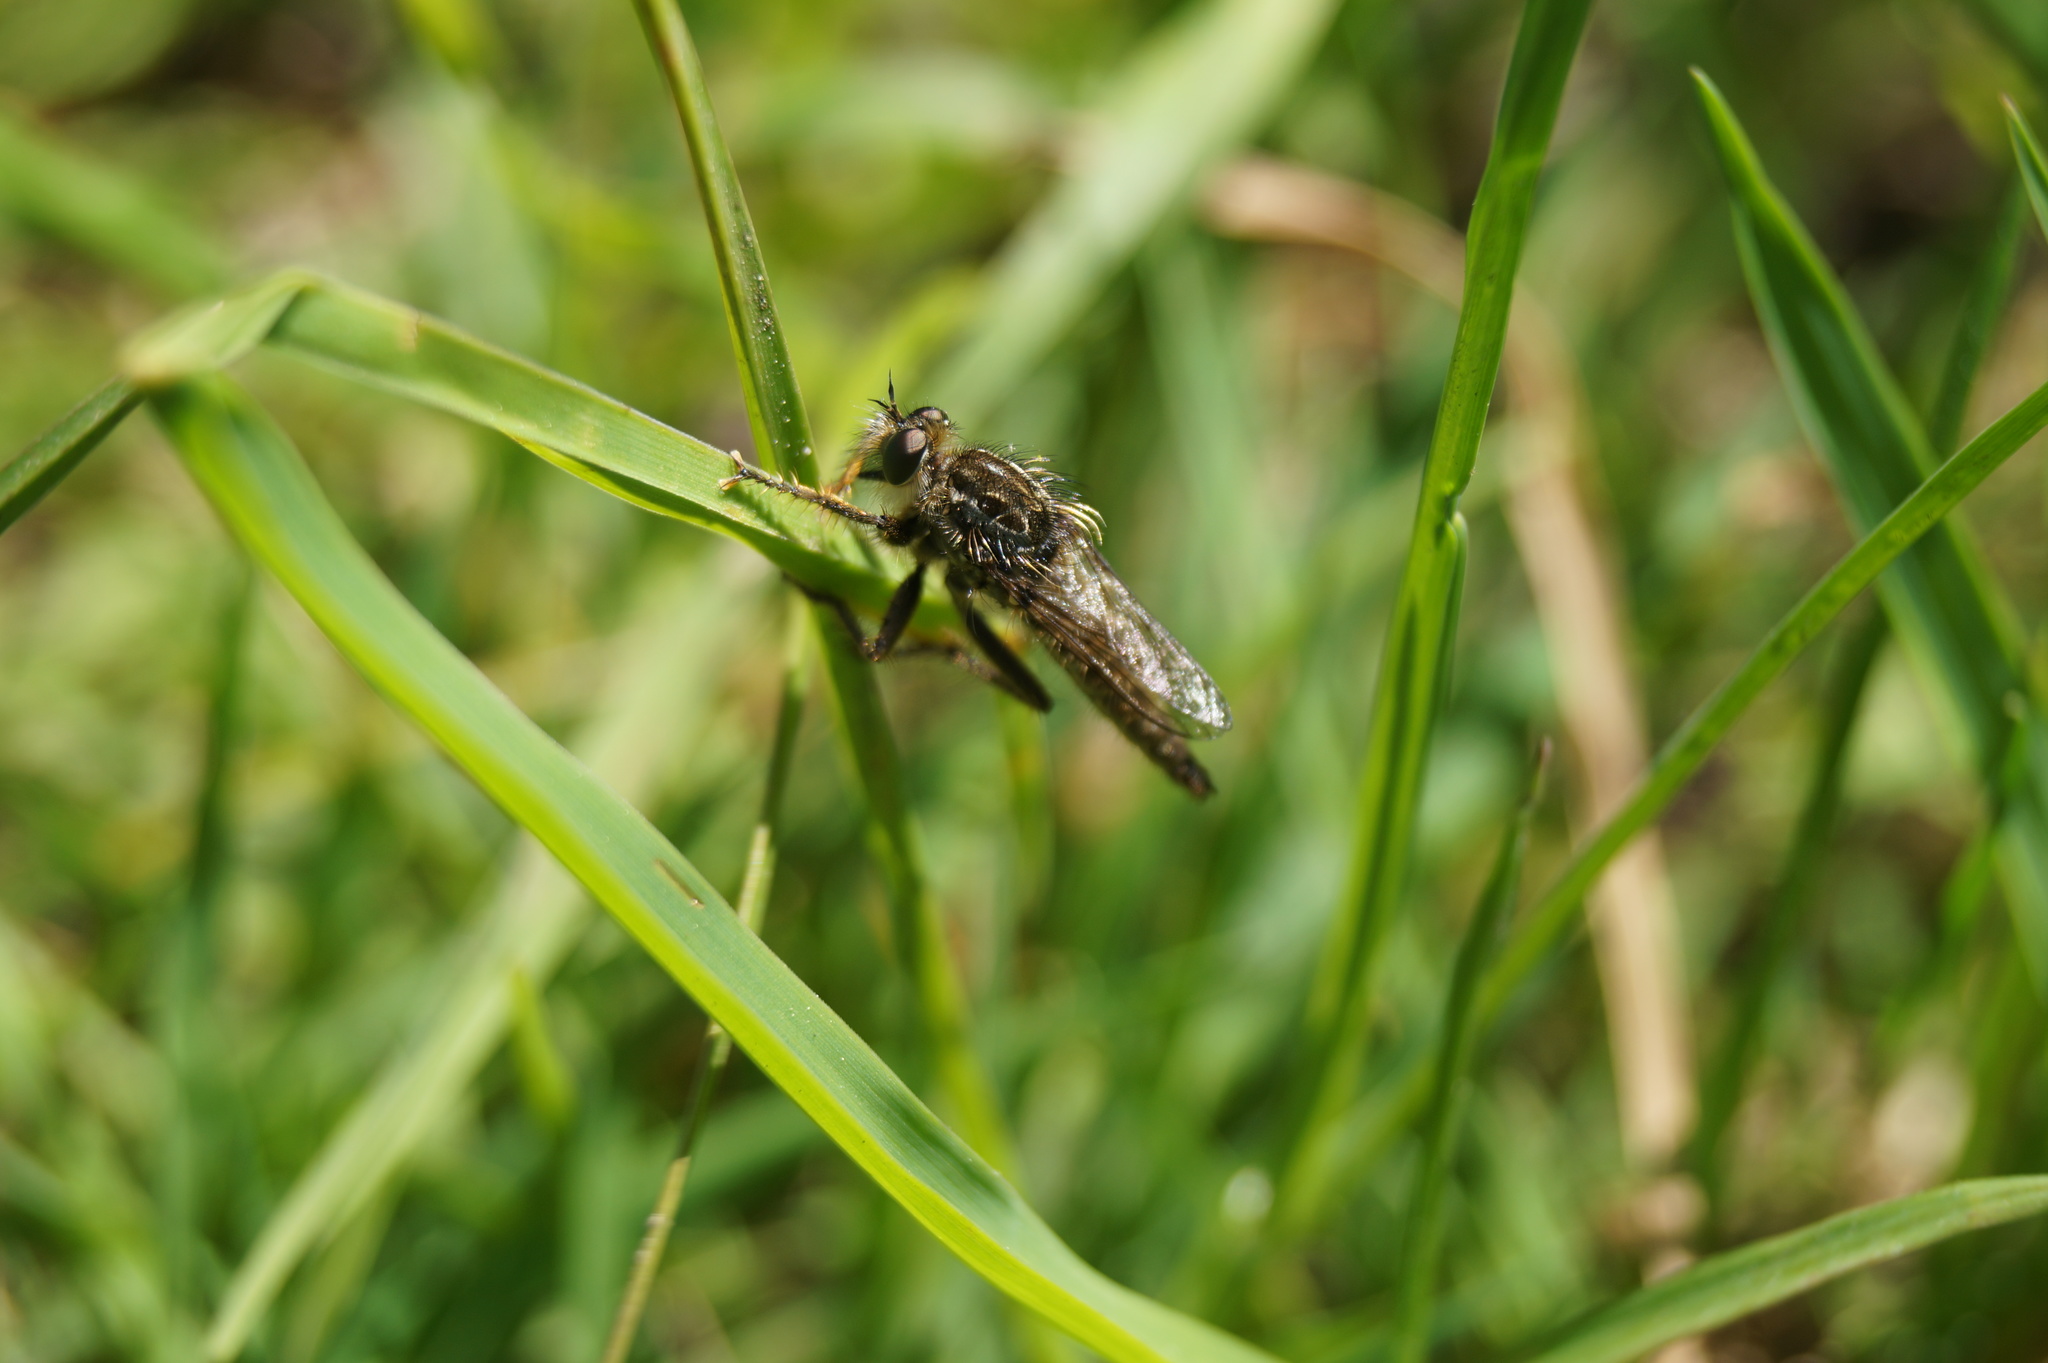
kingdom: Animalia
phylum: Arthropoda
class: Insecta
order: Diptera
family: Asilidae
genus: Dysmachus
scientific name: Dysmachus trigonus
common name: Fan-bristled robberfly
